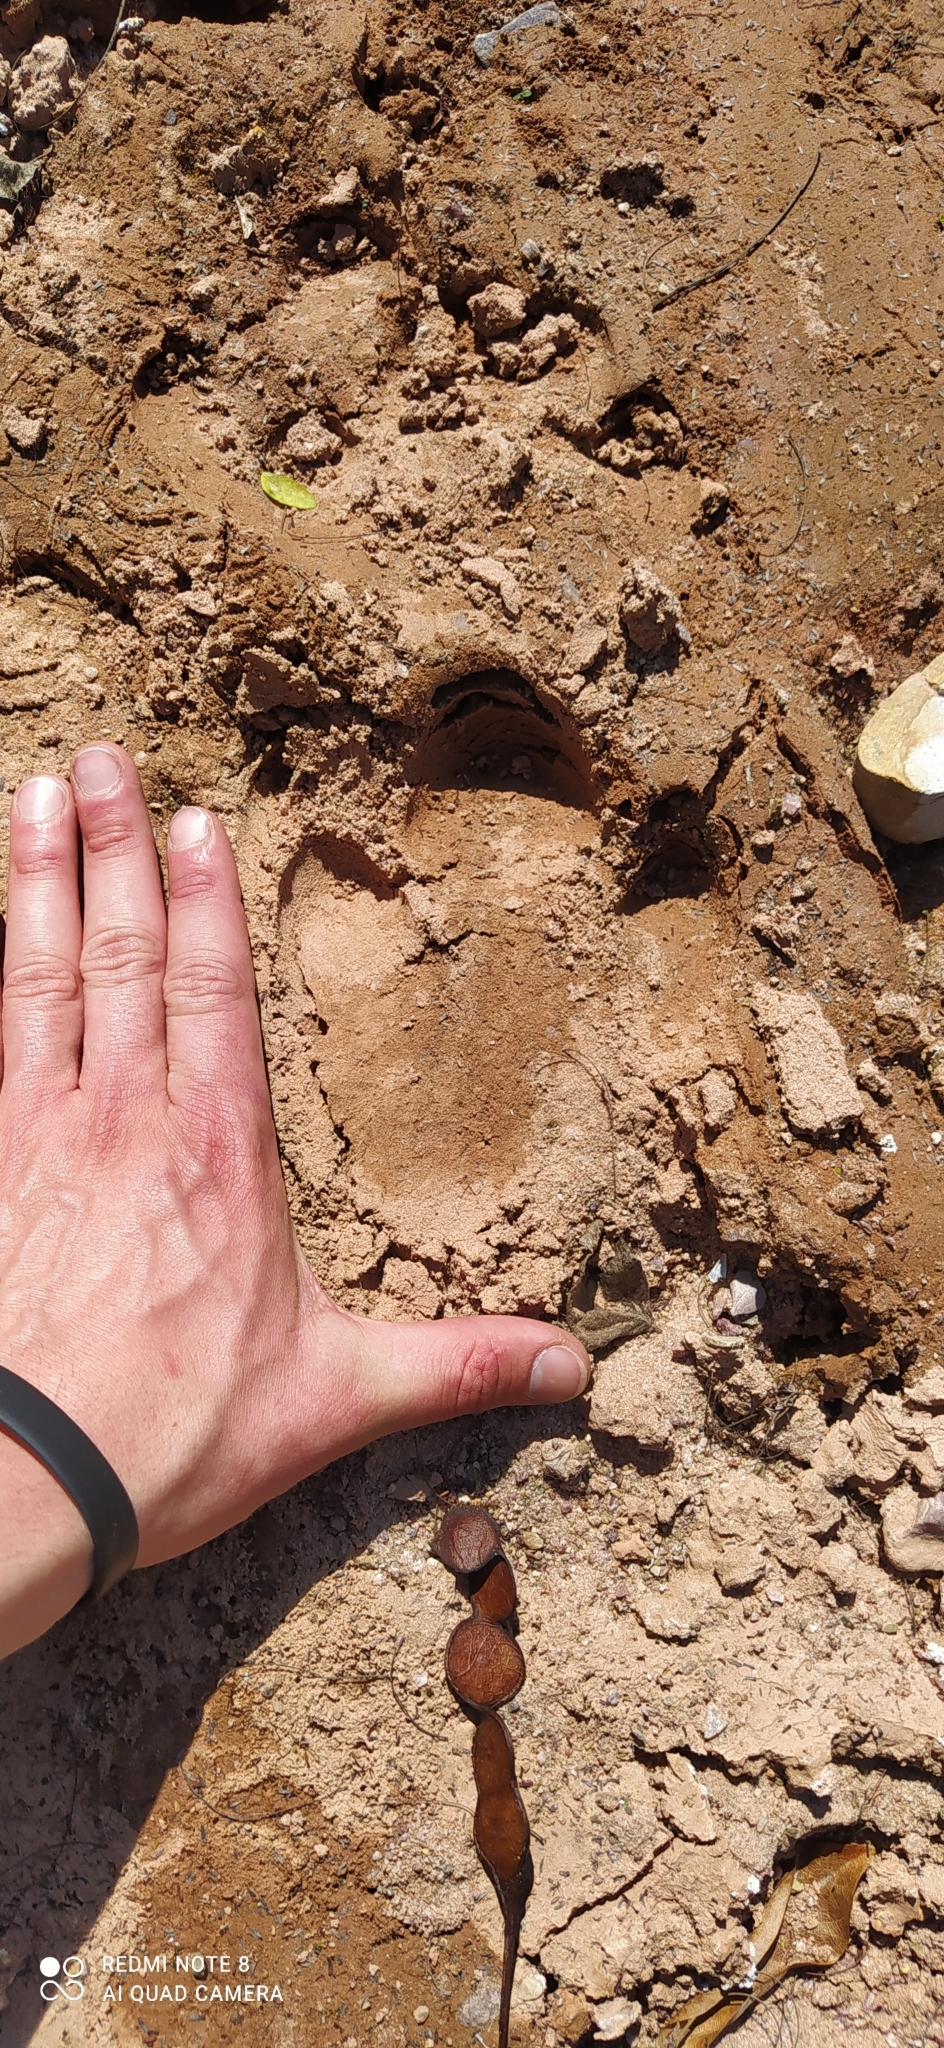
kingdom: Animalia
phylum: Chordata
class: Mammalia
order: Perissodactyla
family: Tapiridae
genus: Tapirus
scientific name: Tapirus terrestris
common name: Brazilian tapir
